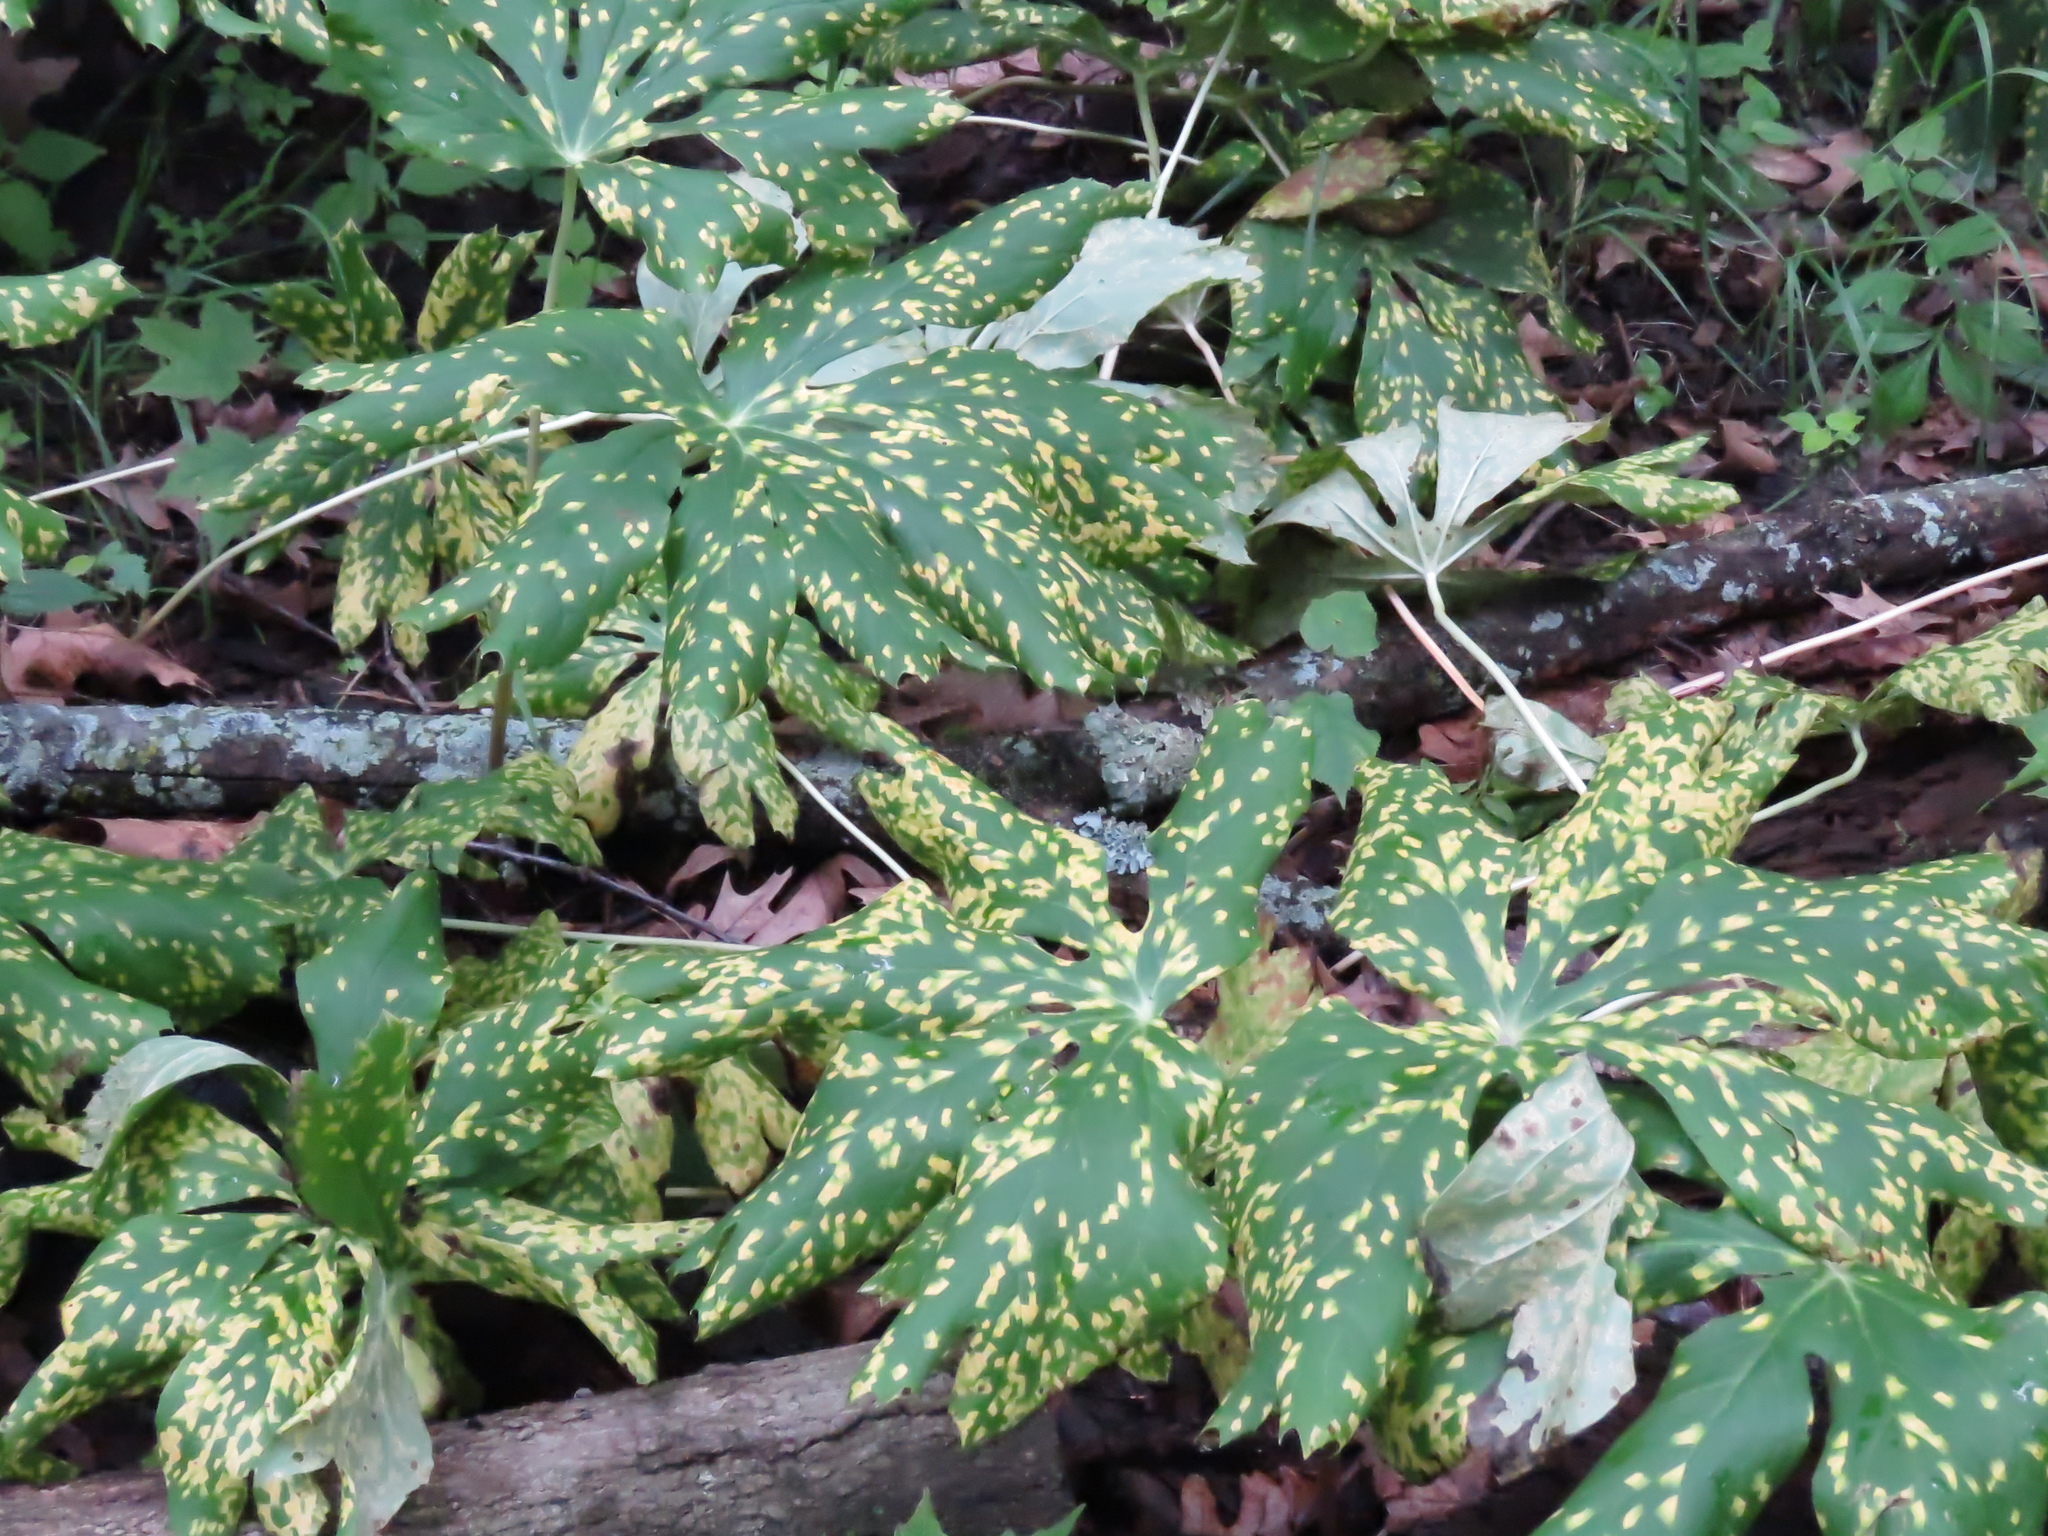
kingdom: Plantae
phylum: Tracheophyta
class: Magnoliopsida
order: Ranunculales
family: Berberidaceae
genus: Podophyllum
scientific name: Podophyllum peltatum
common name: Wild mandrake
